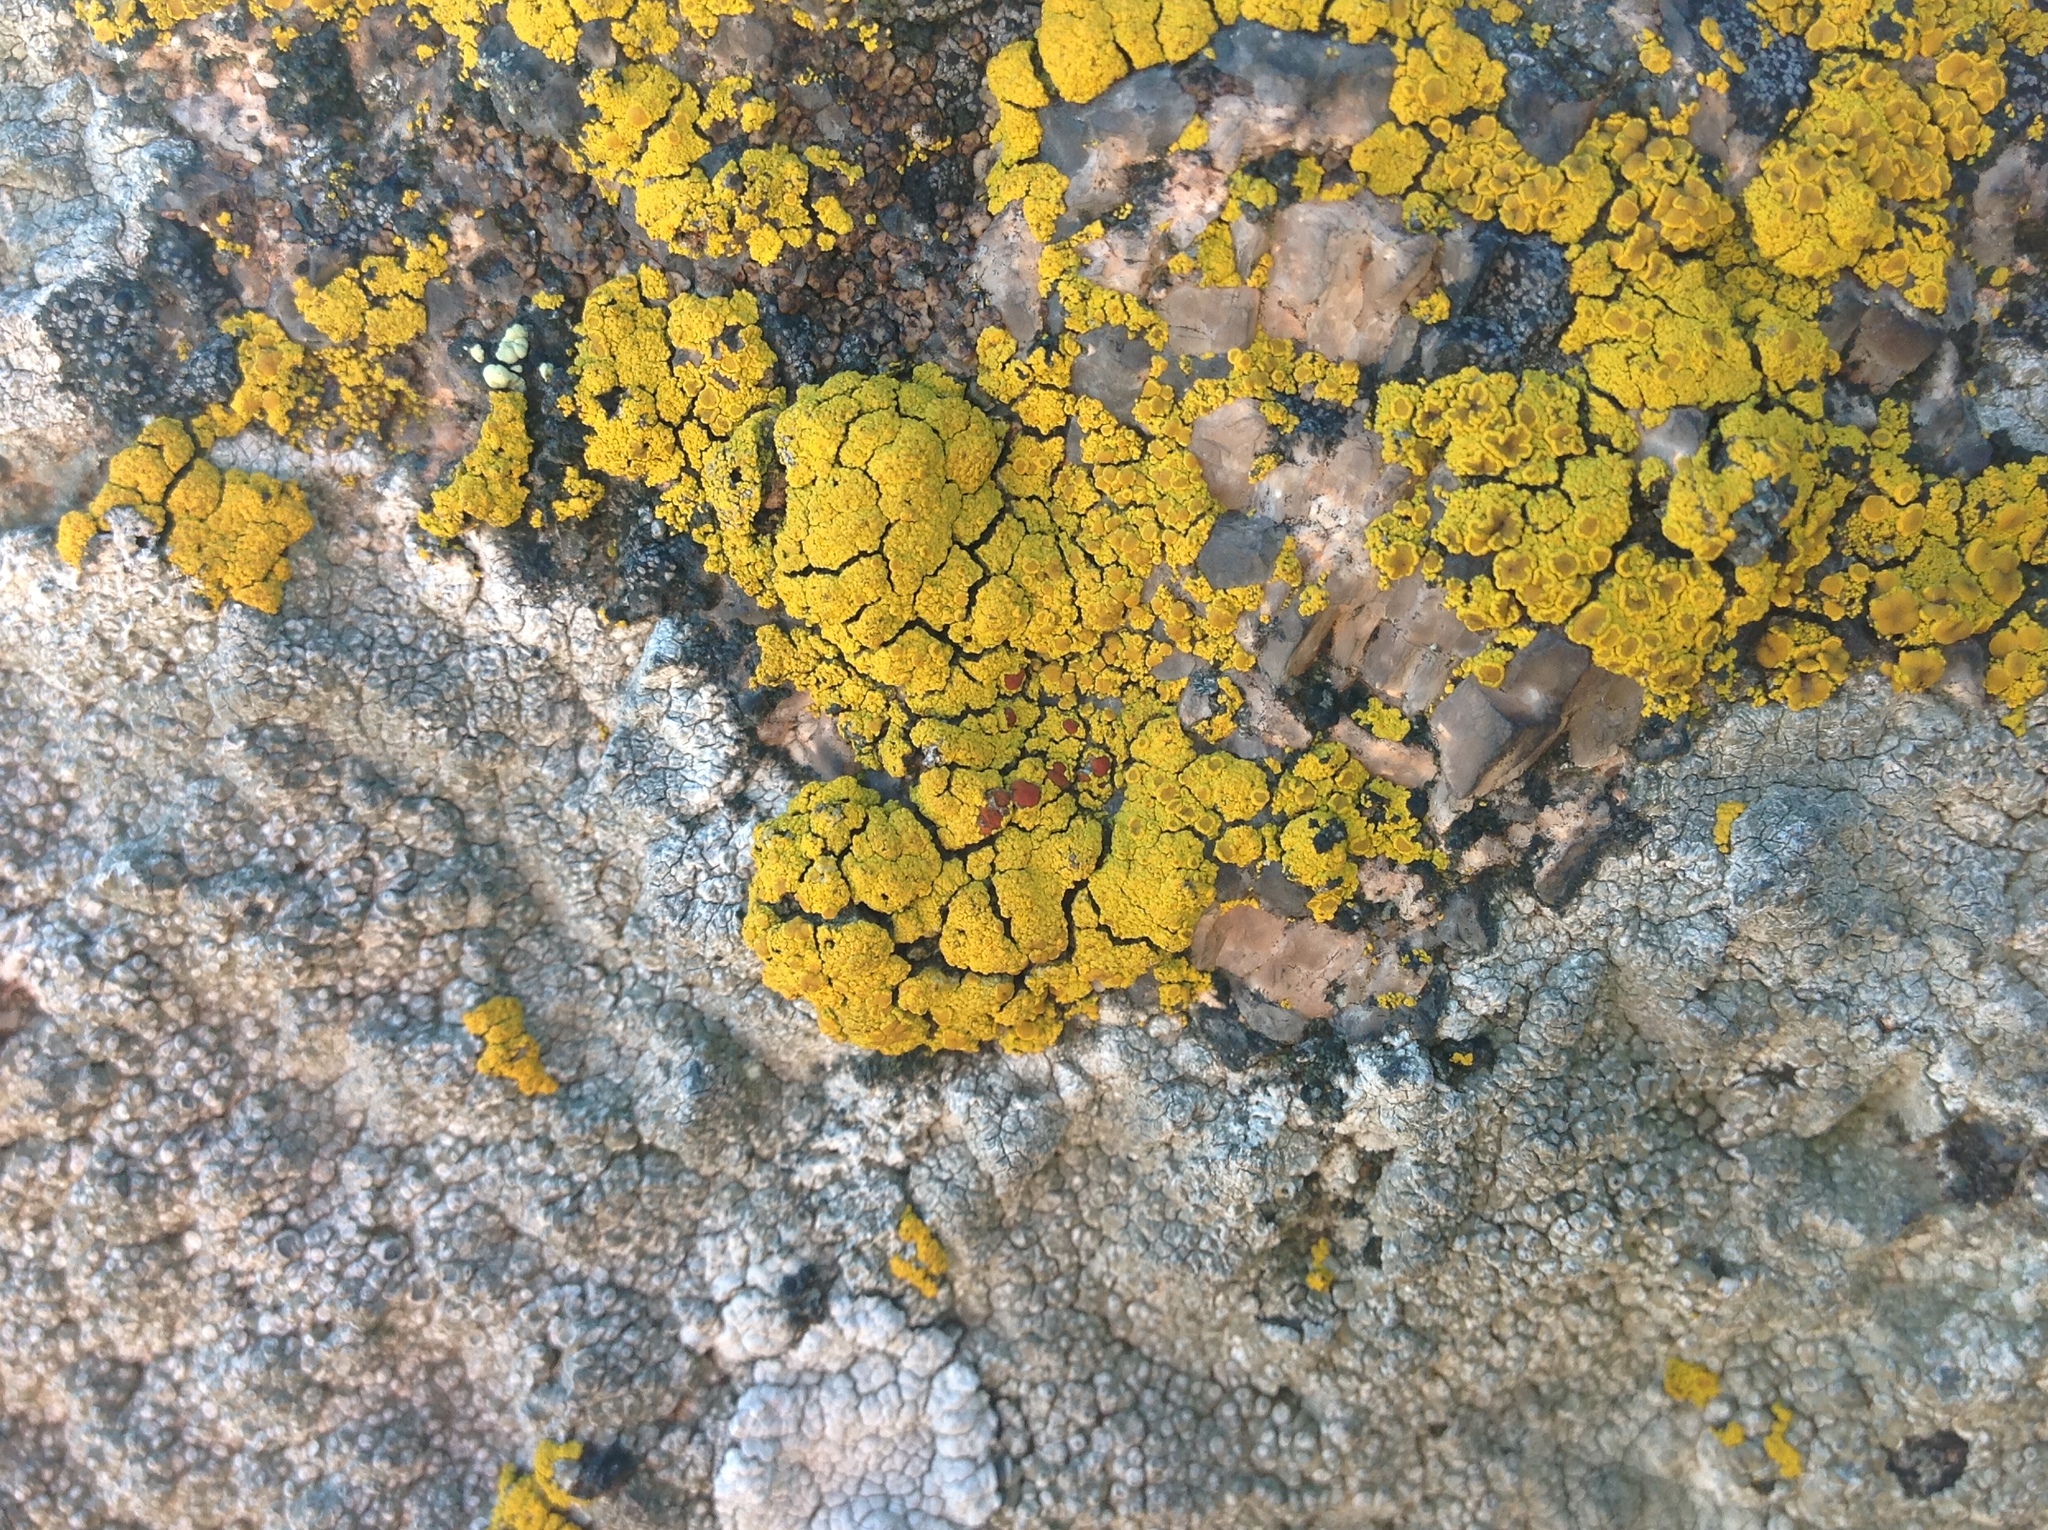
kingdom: Fungi
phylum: Ascomycota
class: Lecanoromycetes
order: Teloschistales
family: Teloschistaceae
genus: Pisutiella
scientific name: Pisutiella grimmiae
